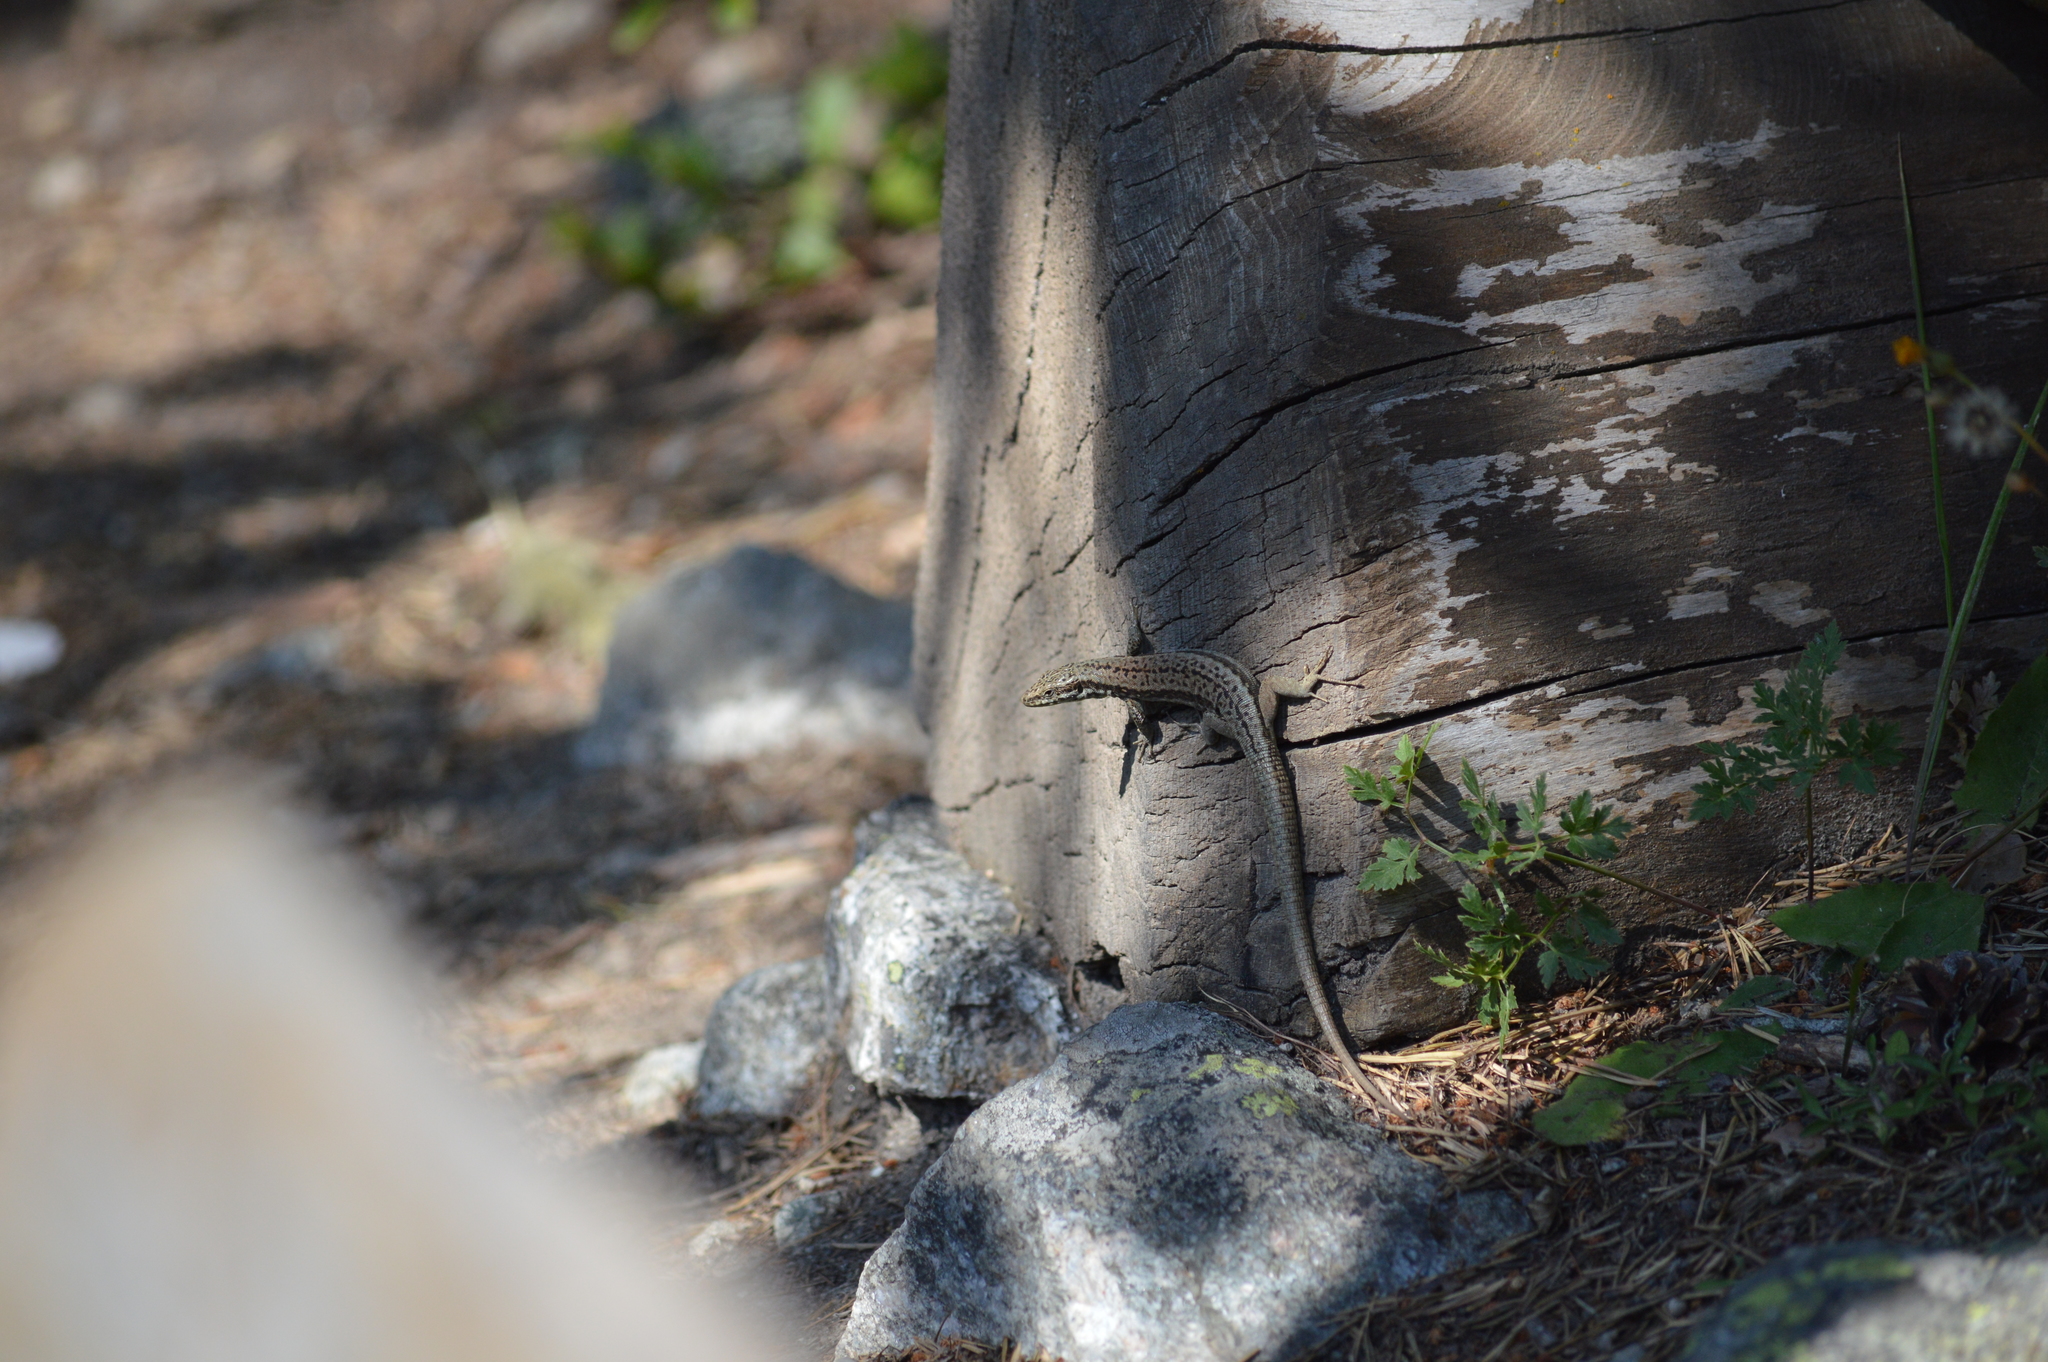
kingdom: Animalia
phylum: Chordata
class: Squamata
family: Lacertidae
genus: Podarcis
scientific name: Podarcis muralis
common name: Common wall lizard
